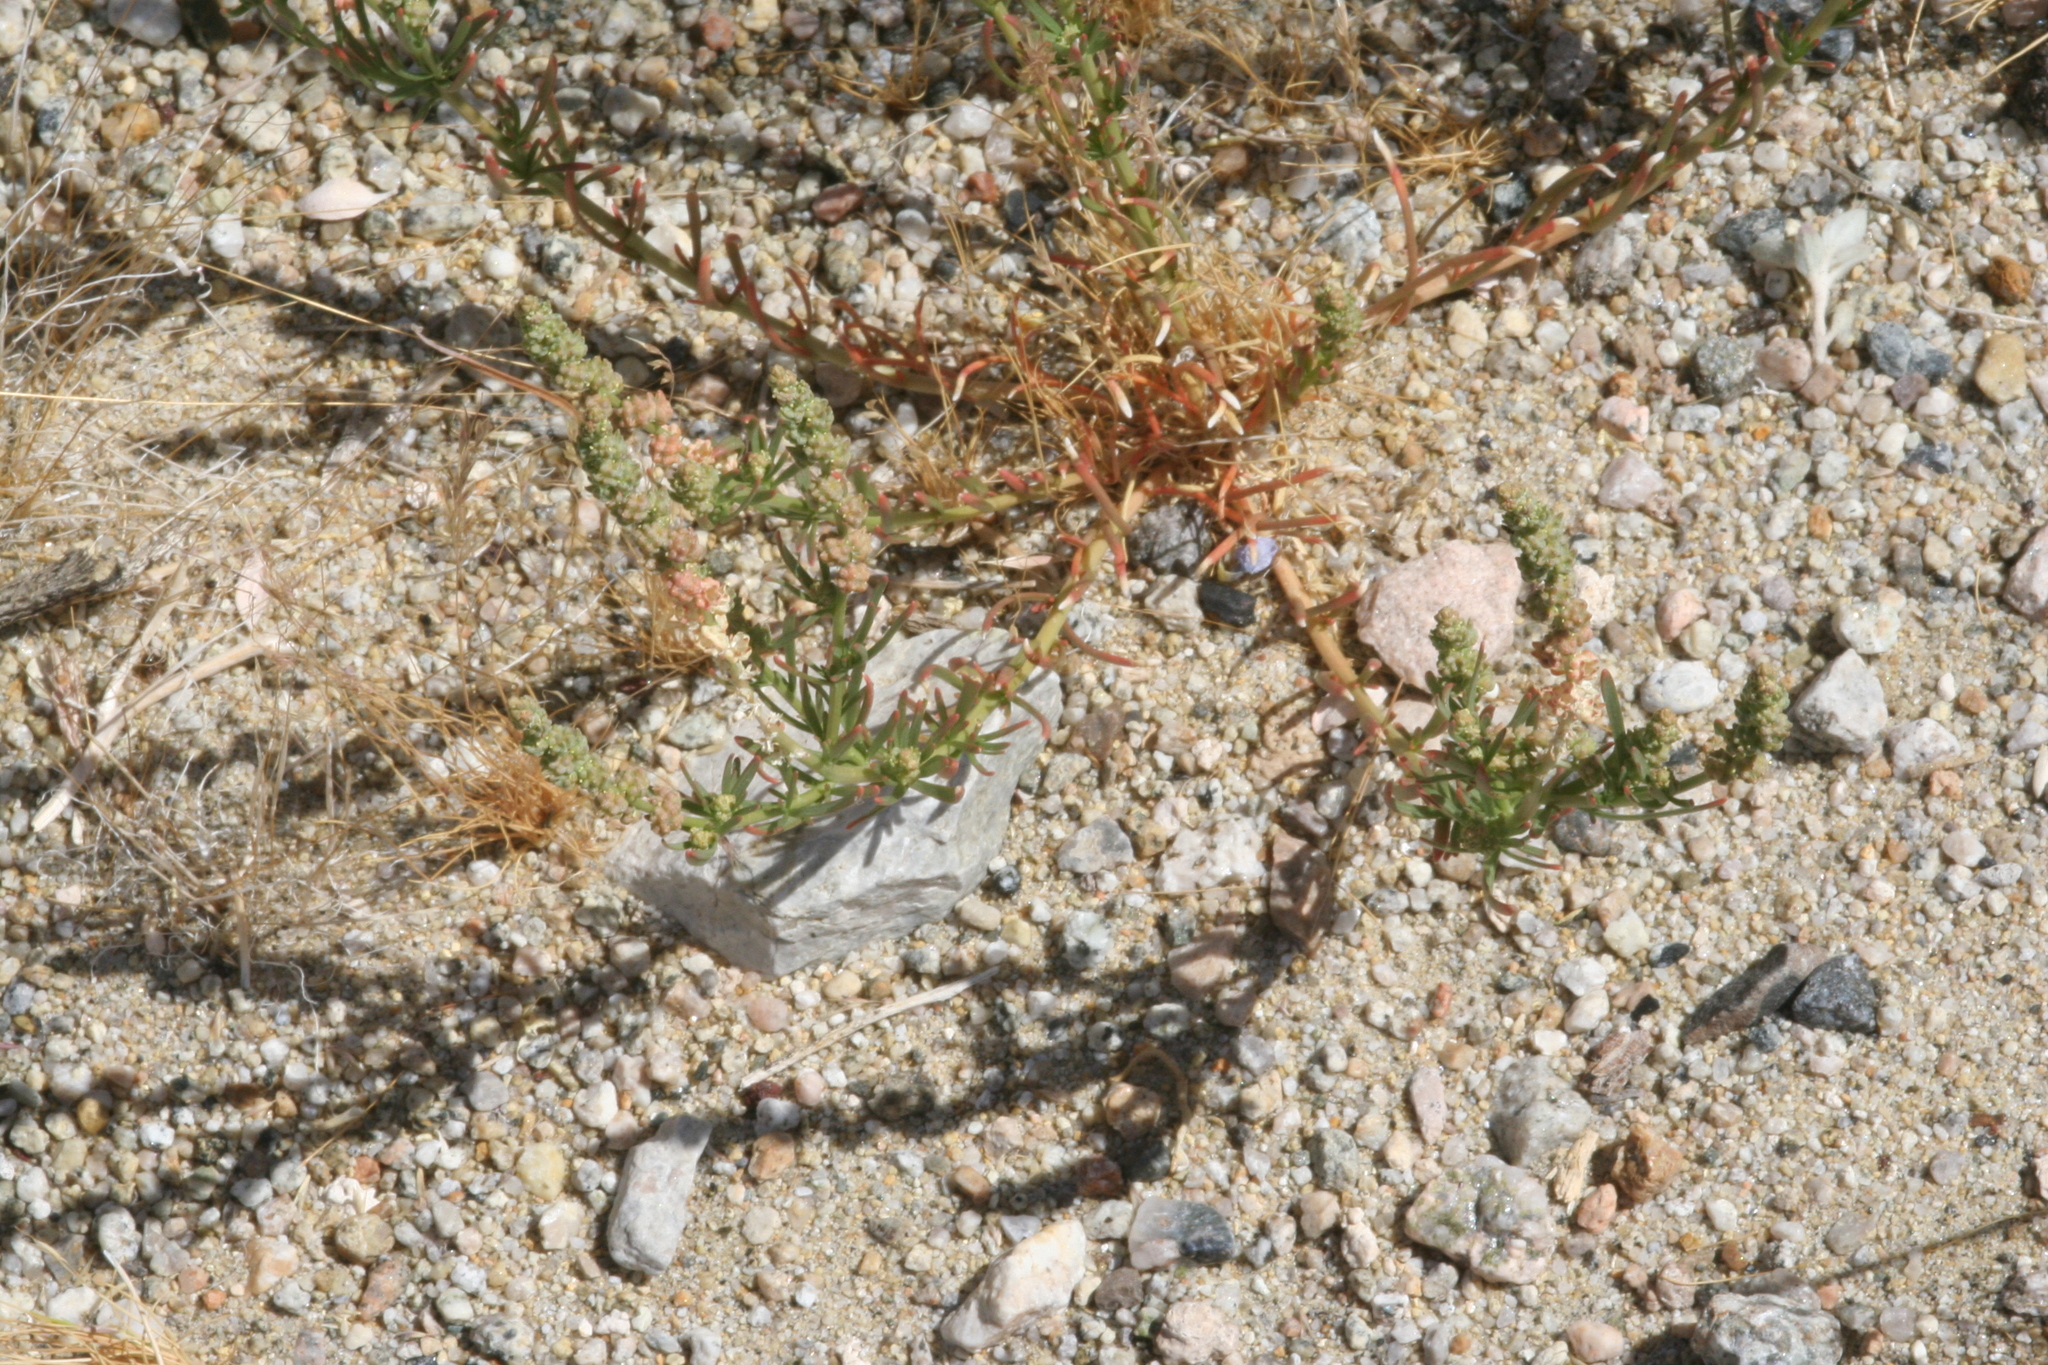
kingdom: Plantae
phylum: Tracheophyta
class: Magnoliopsida
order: Brassicales
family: Resedaceae
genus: Oligomeris
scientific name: Oligomeris linifolia
